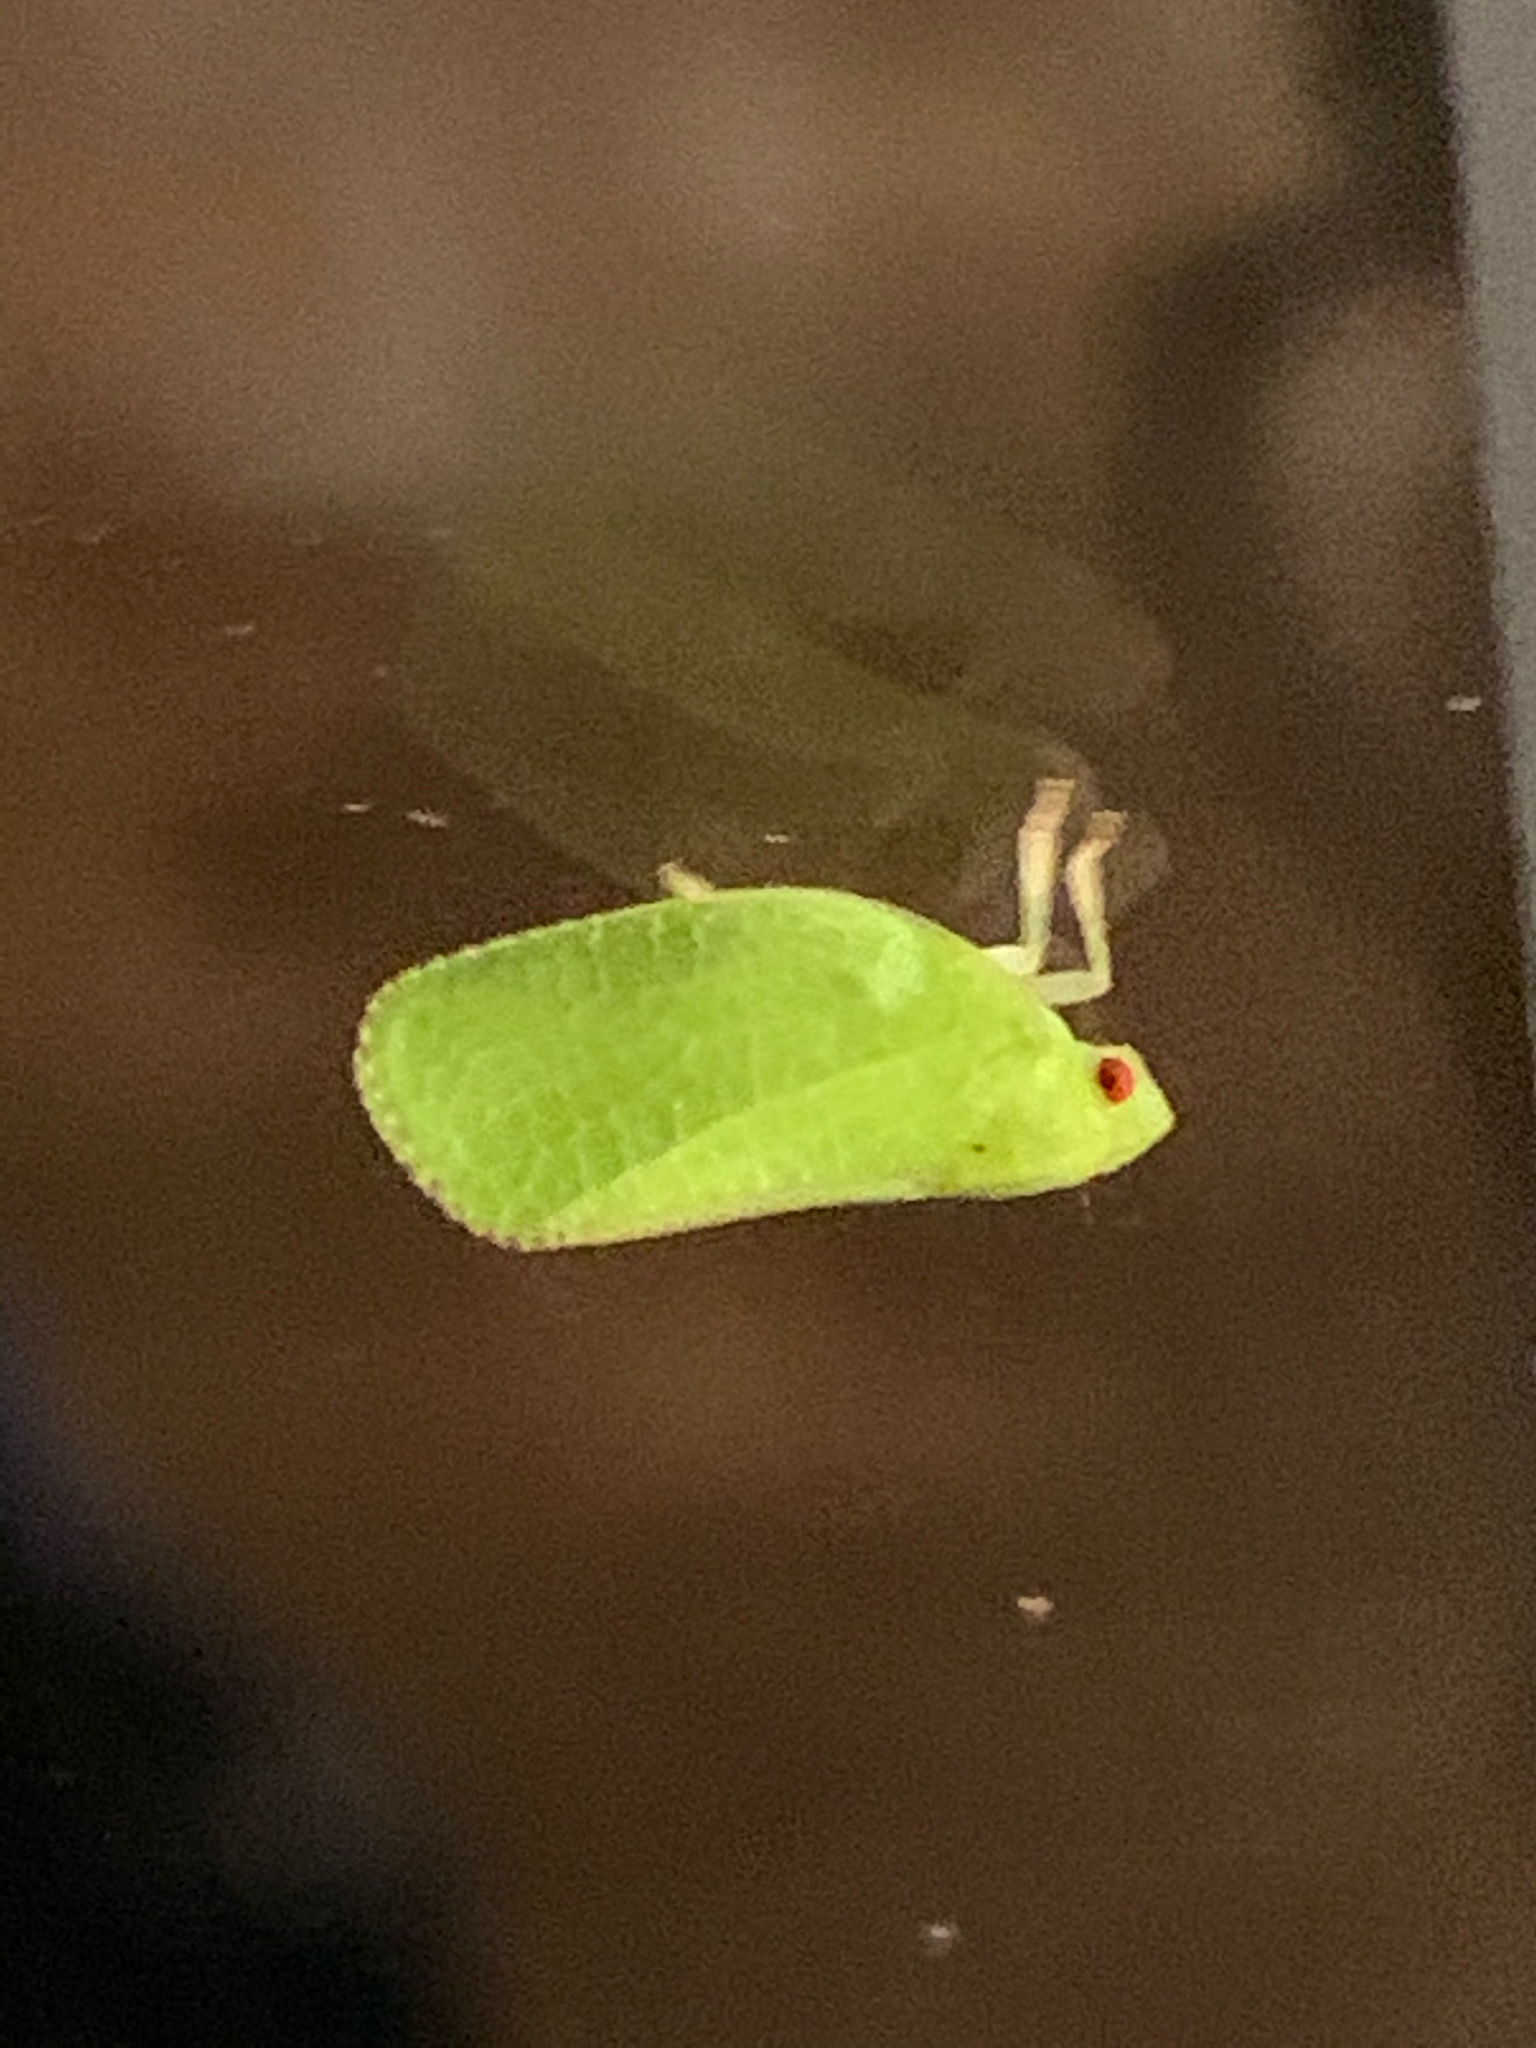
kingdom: Animalia
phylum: Arthropoda
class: Insecta
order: Hemiptera
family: Acanaloniidae
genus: Acanalonia
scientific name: Acanalonia conica
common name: Green cone-headed planthopper
